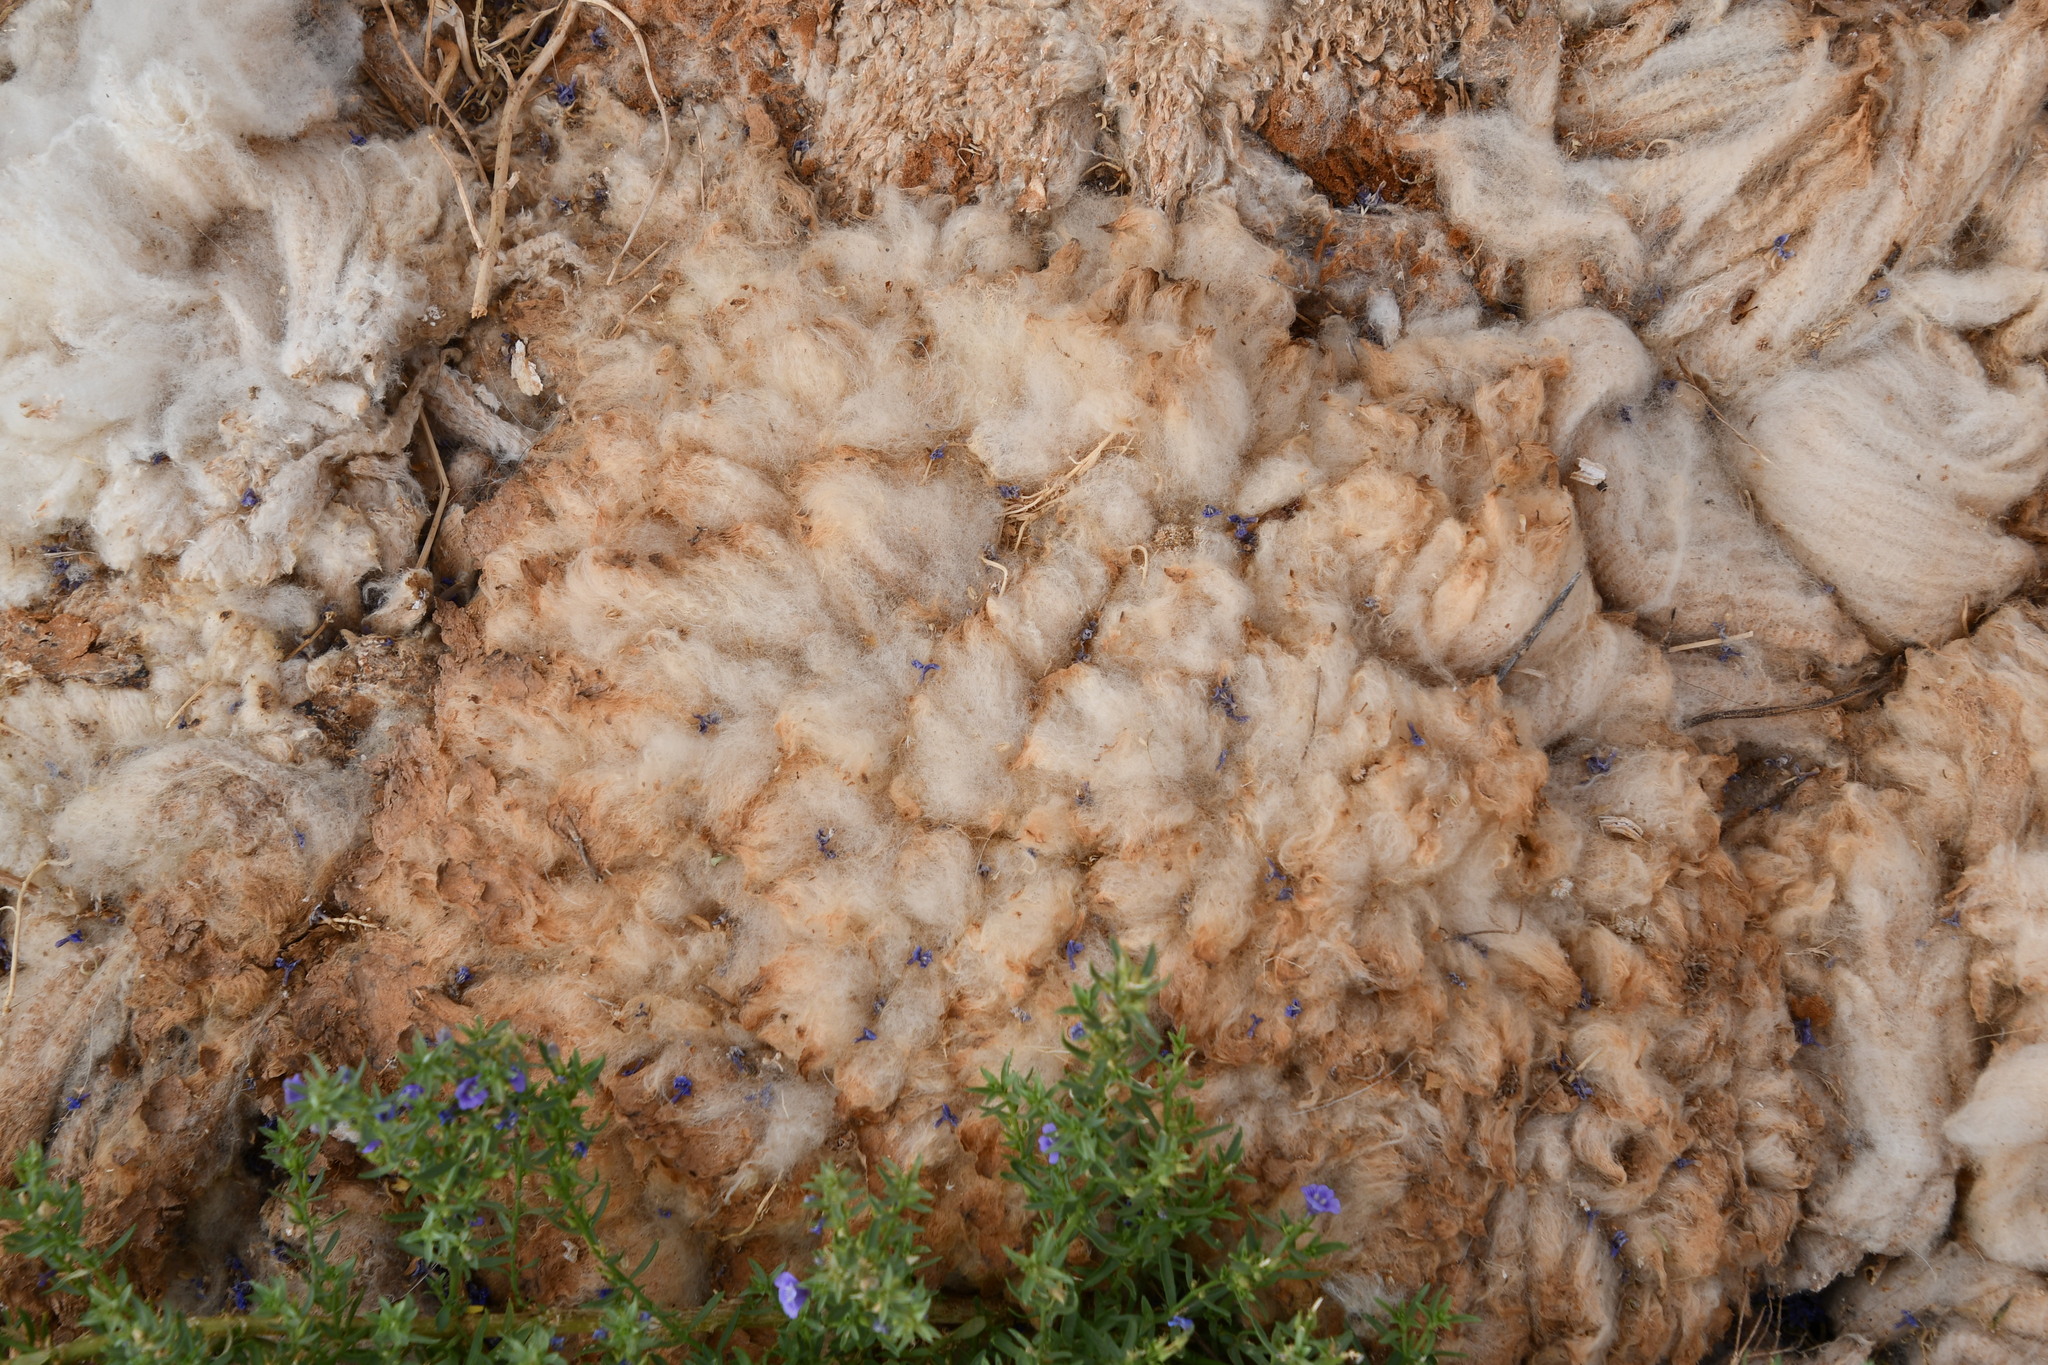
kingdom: Animalia
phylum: Chordata
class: Mammalia
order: Artiodactyla
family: Bovidae
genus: Ovis
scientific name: Ovis aries
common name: Domestic sheep
